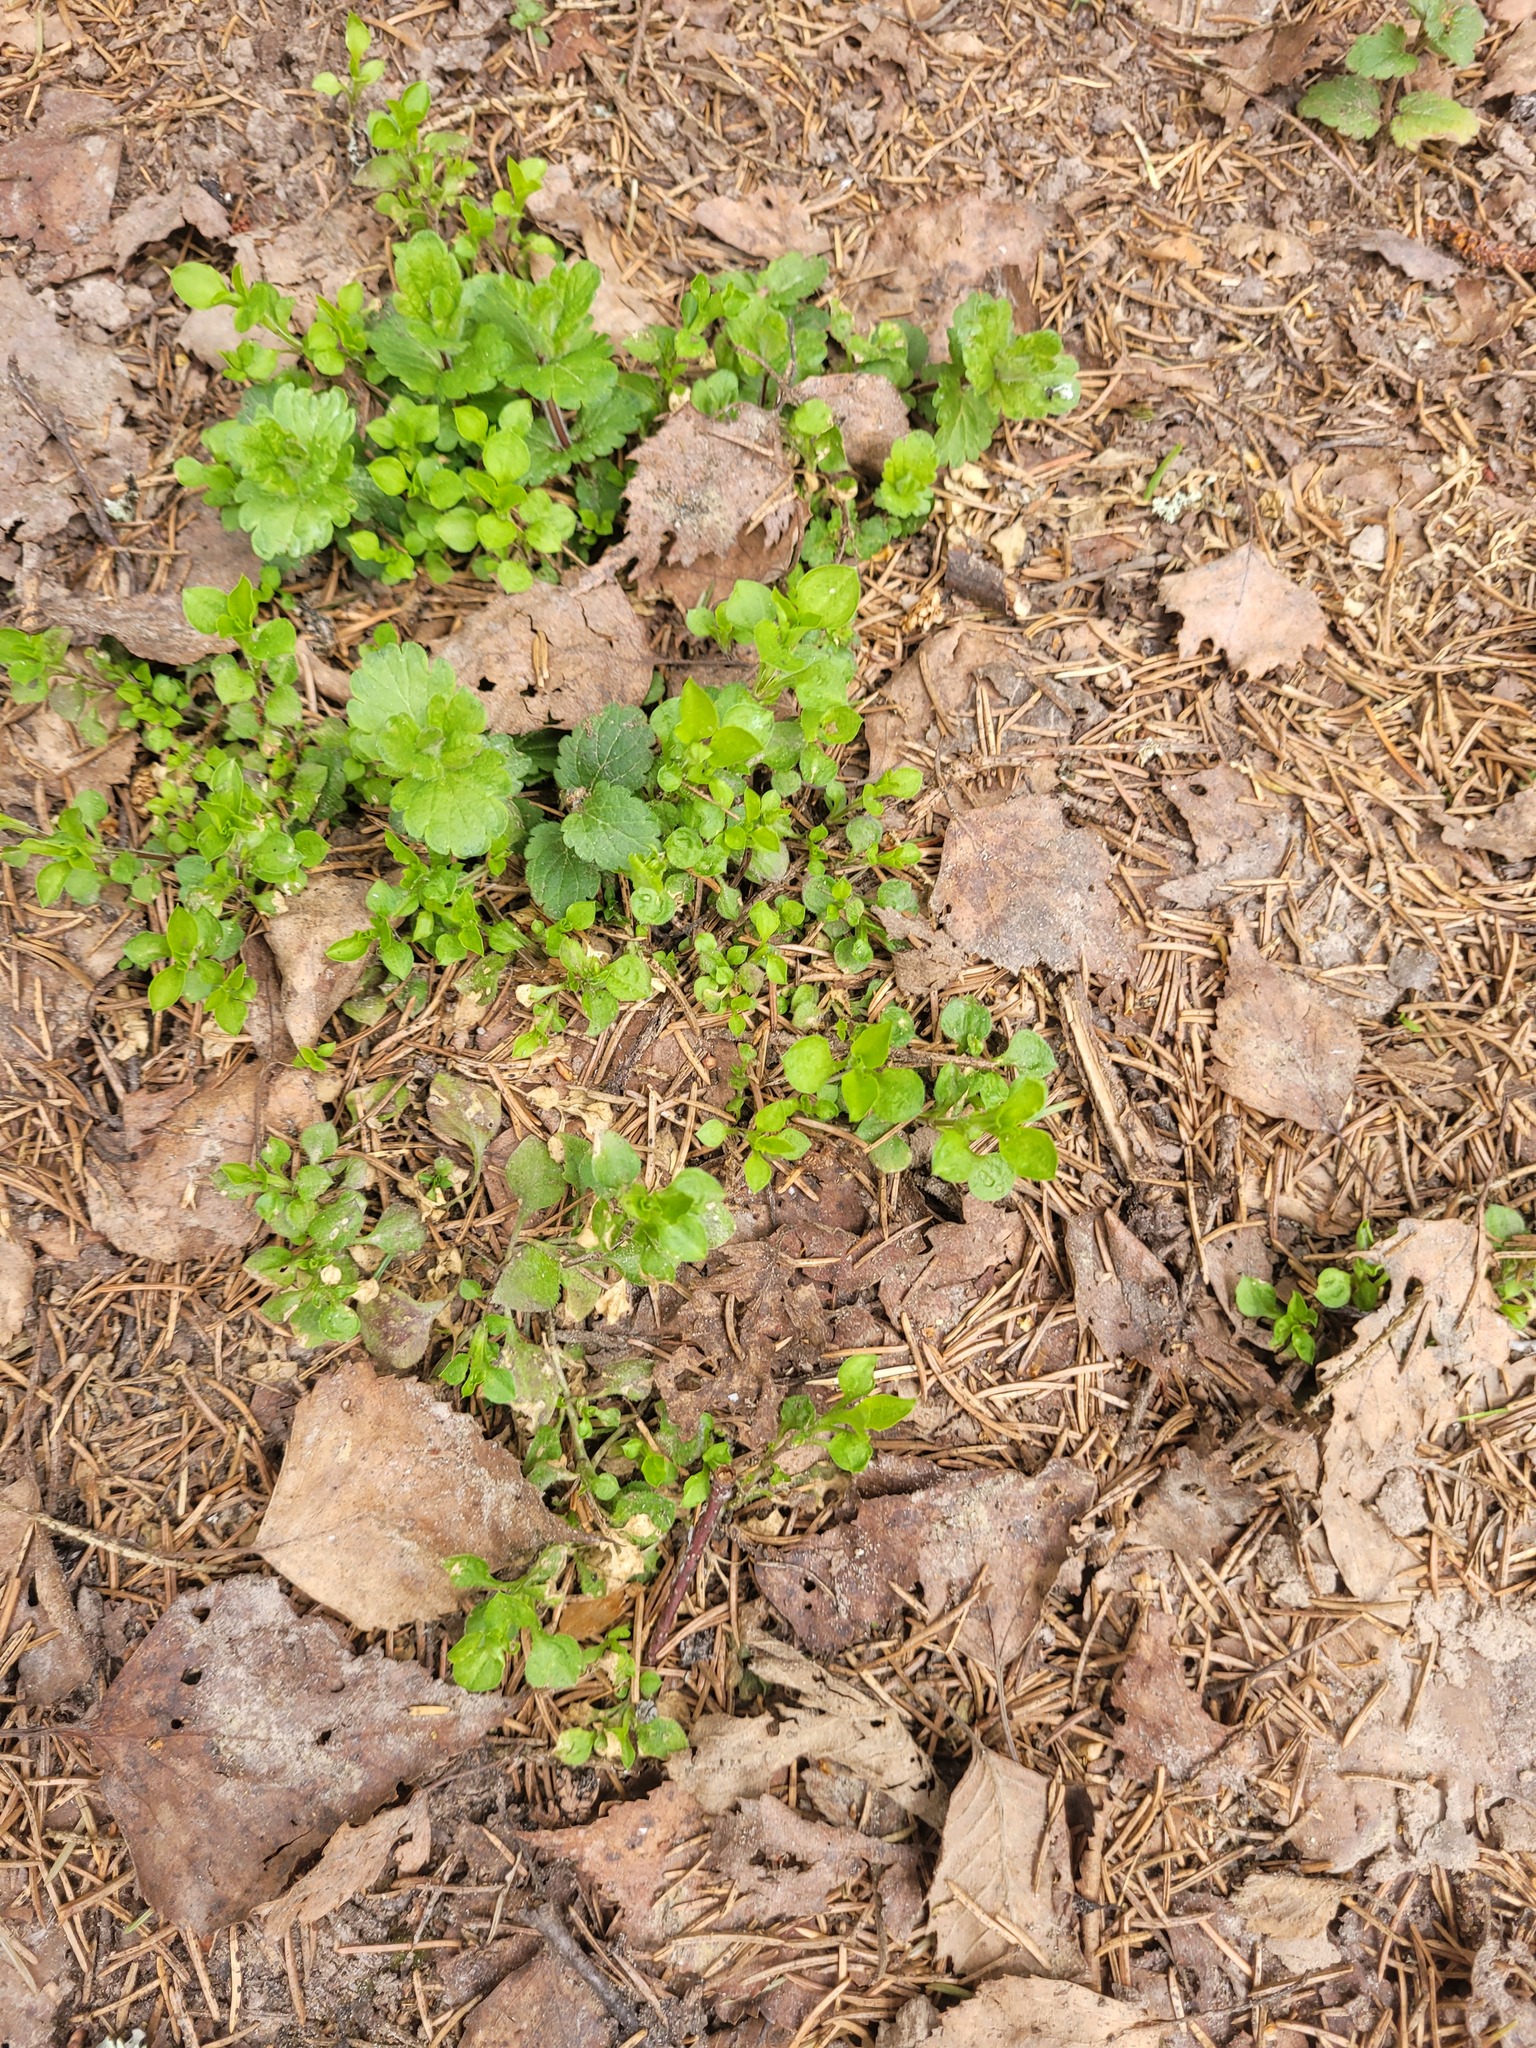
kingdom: Plantae
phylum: Tracheophyta
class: Magnoliopsida
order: Caryophyllales
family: Caryophyllaceae
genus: Moehringia
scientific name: Moehringia trinervia
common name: Three-nerved sandwort
